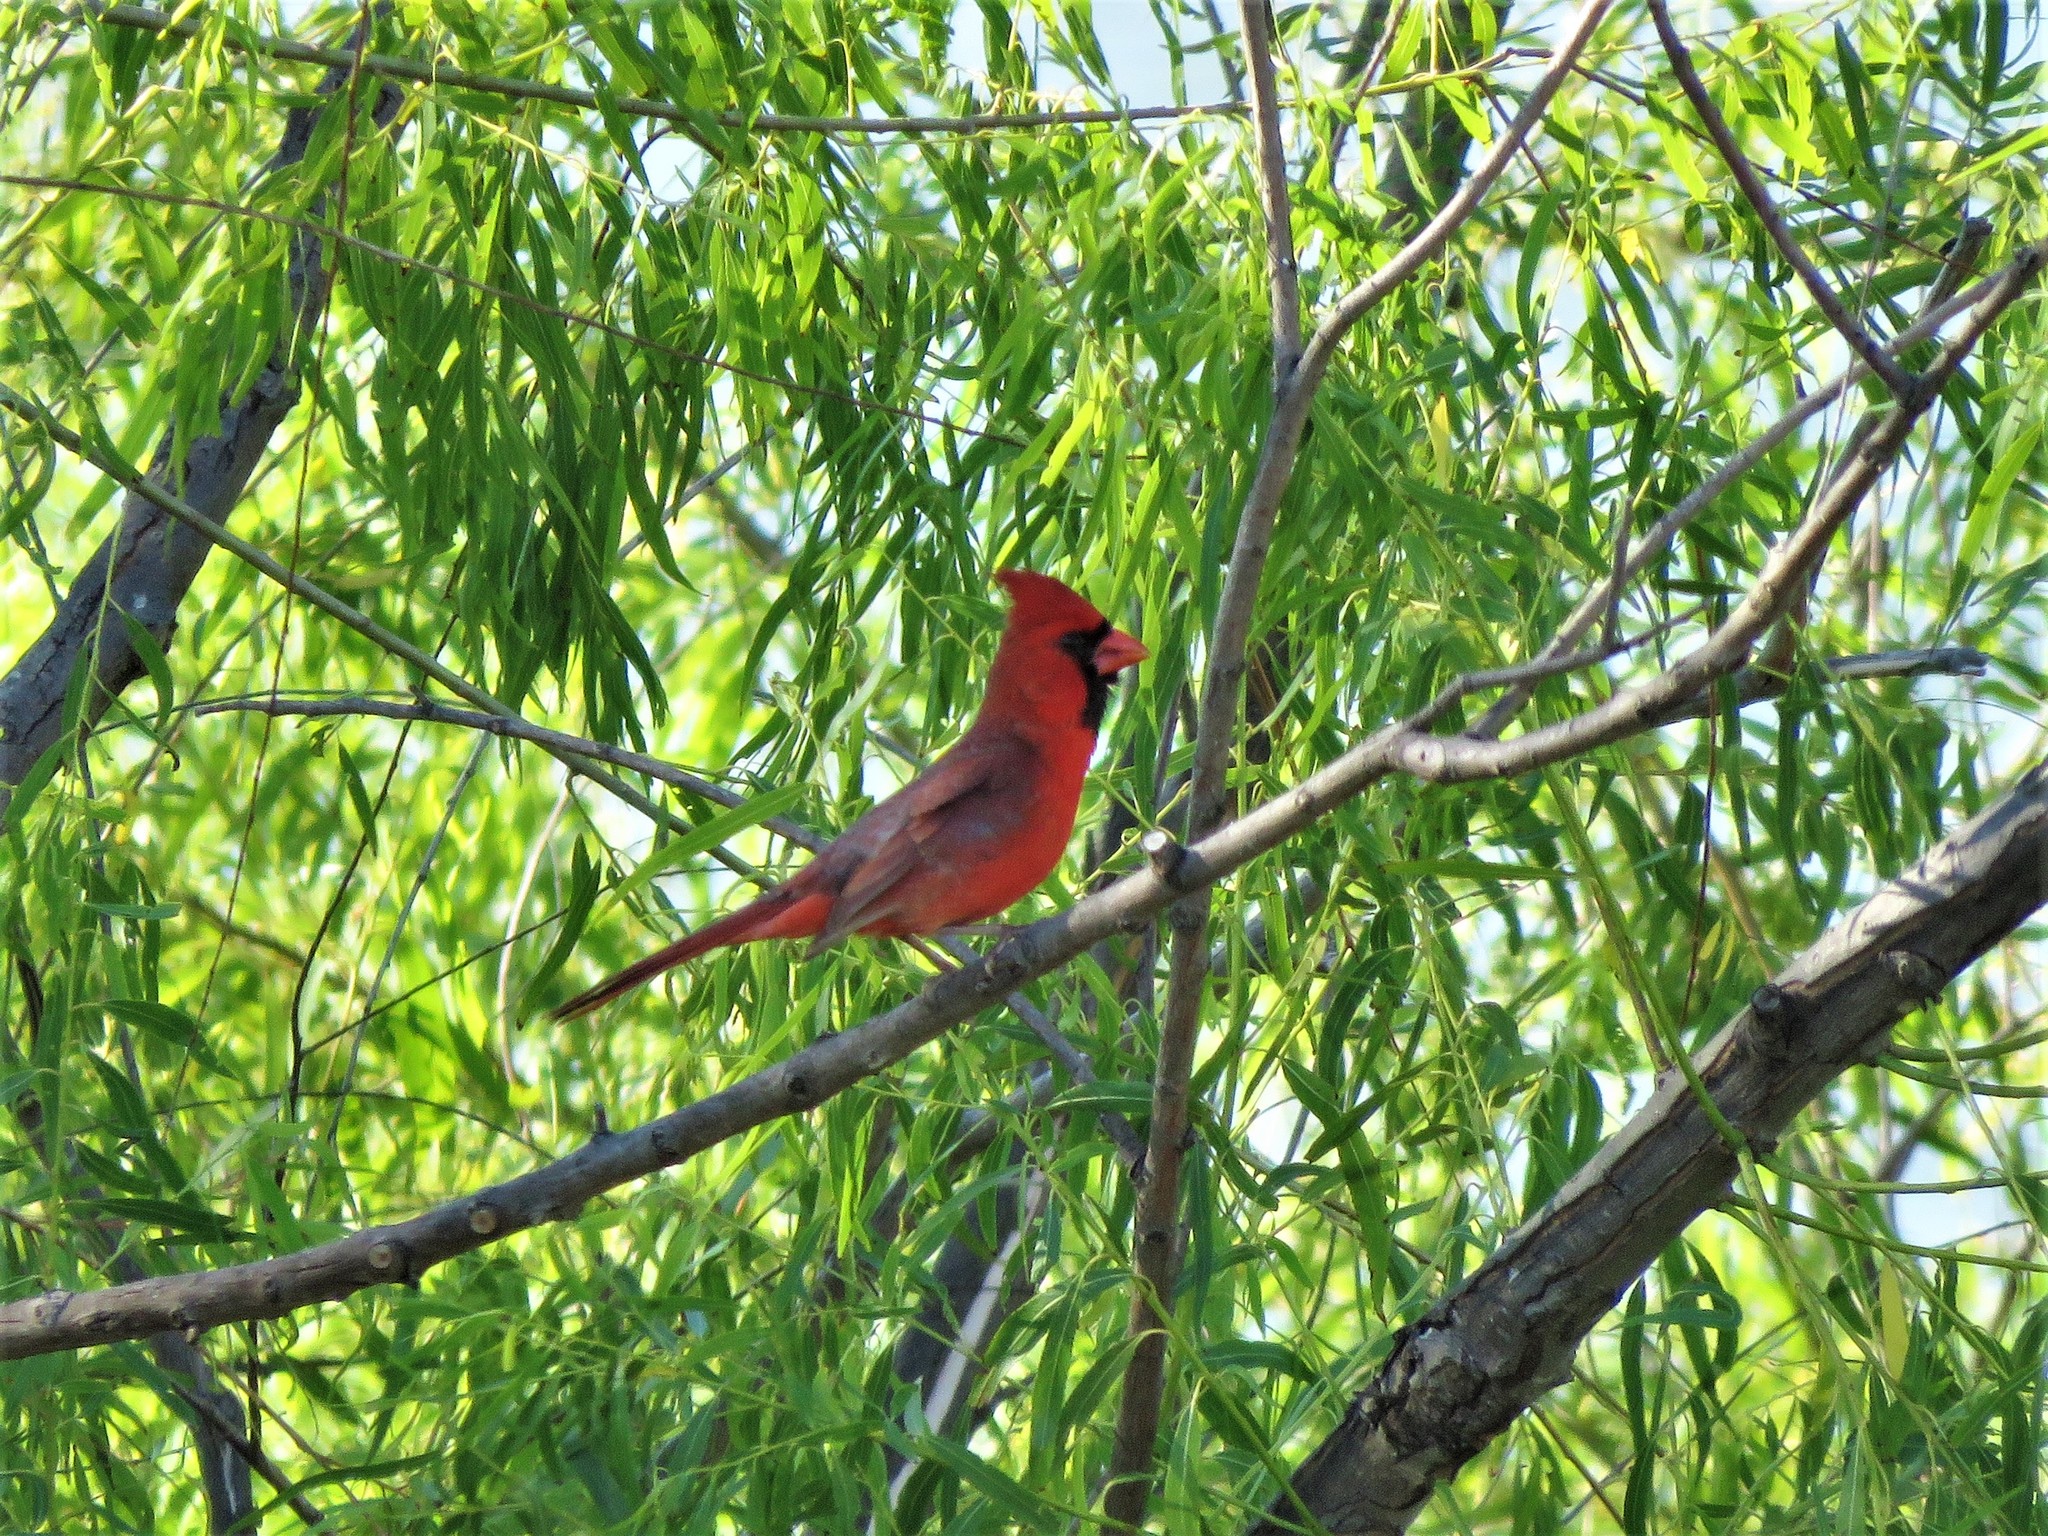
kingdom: Animalia
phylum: Chordata
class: Aves
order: Passeriformes
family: Cardinalidae
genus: Cardinalis
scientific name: Cardinalis cardinalis
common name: Northern cardinal
